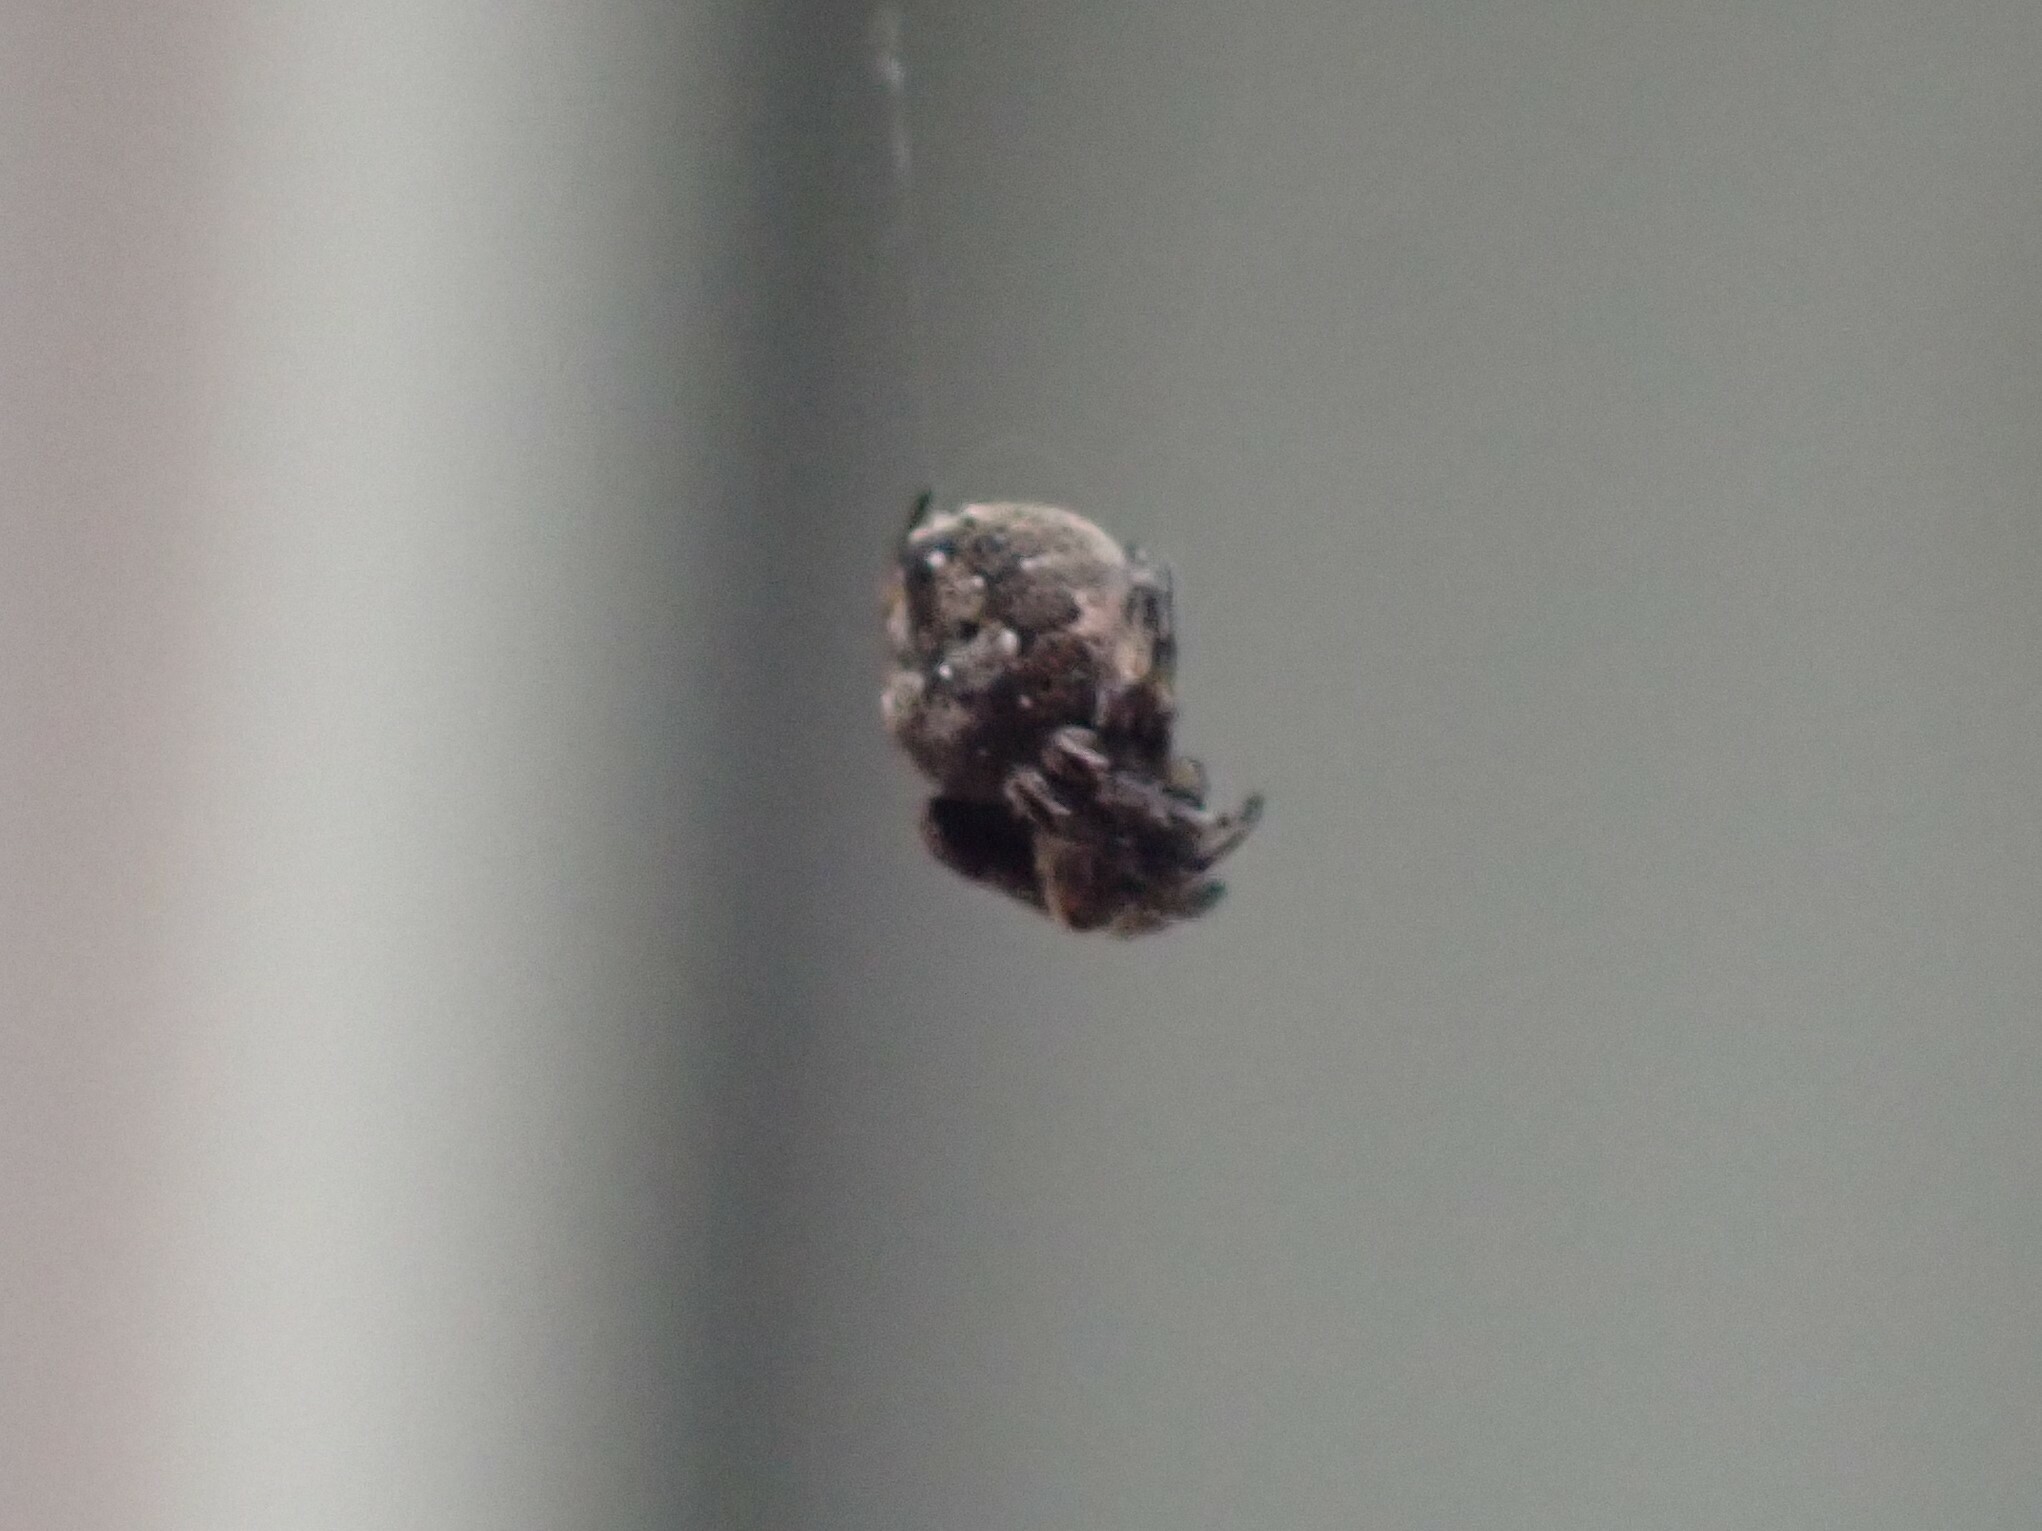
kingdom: Animalia
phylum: Arthropoda
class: Arachnida
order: Araneae
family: Araneidae
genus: Eriovixia
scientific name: Eriovixia excelsa
